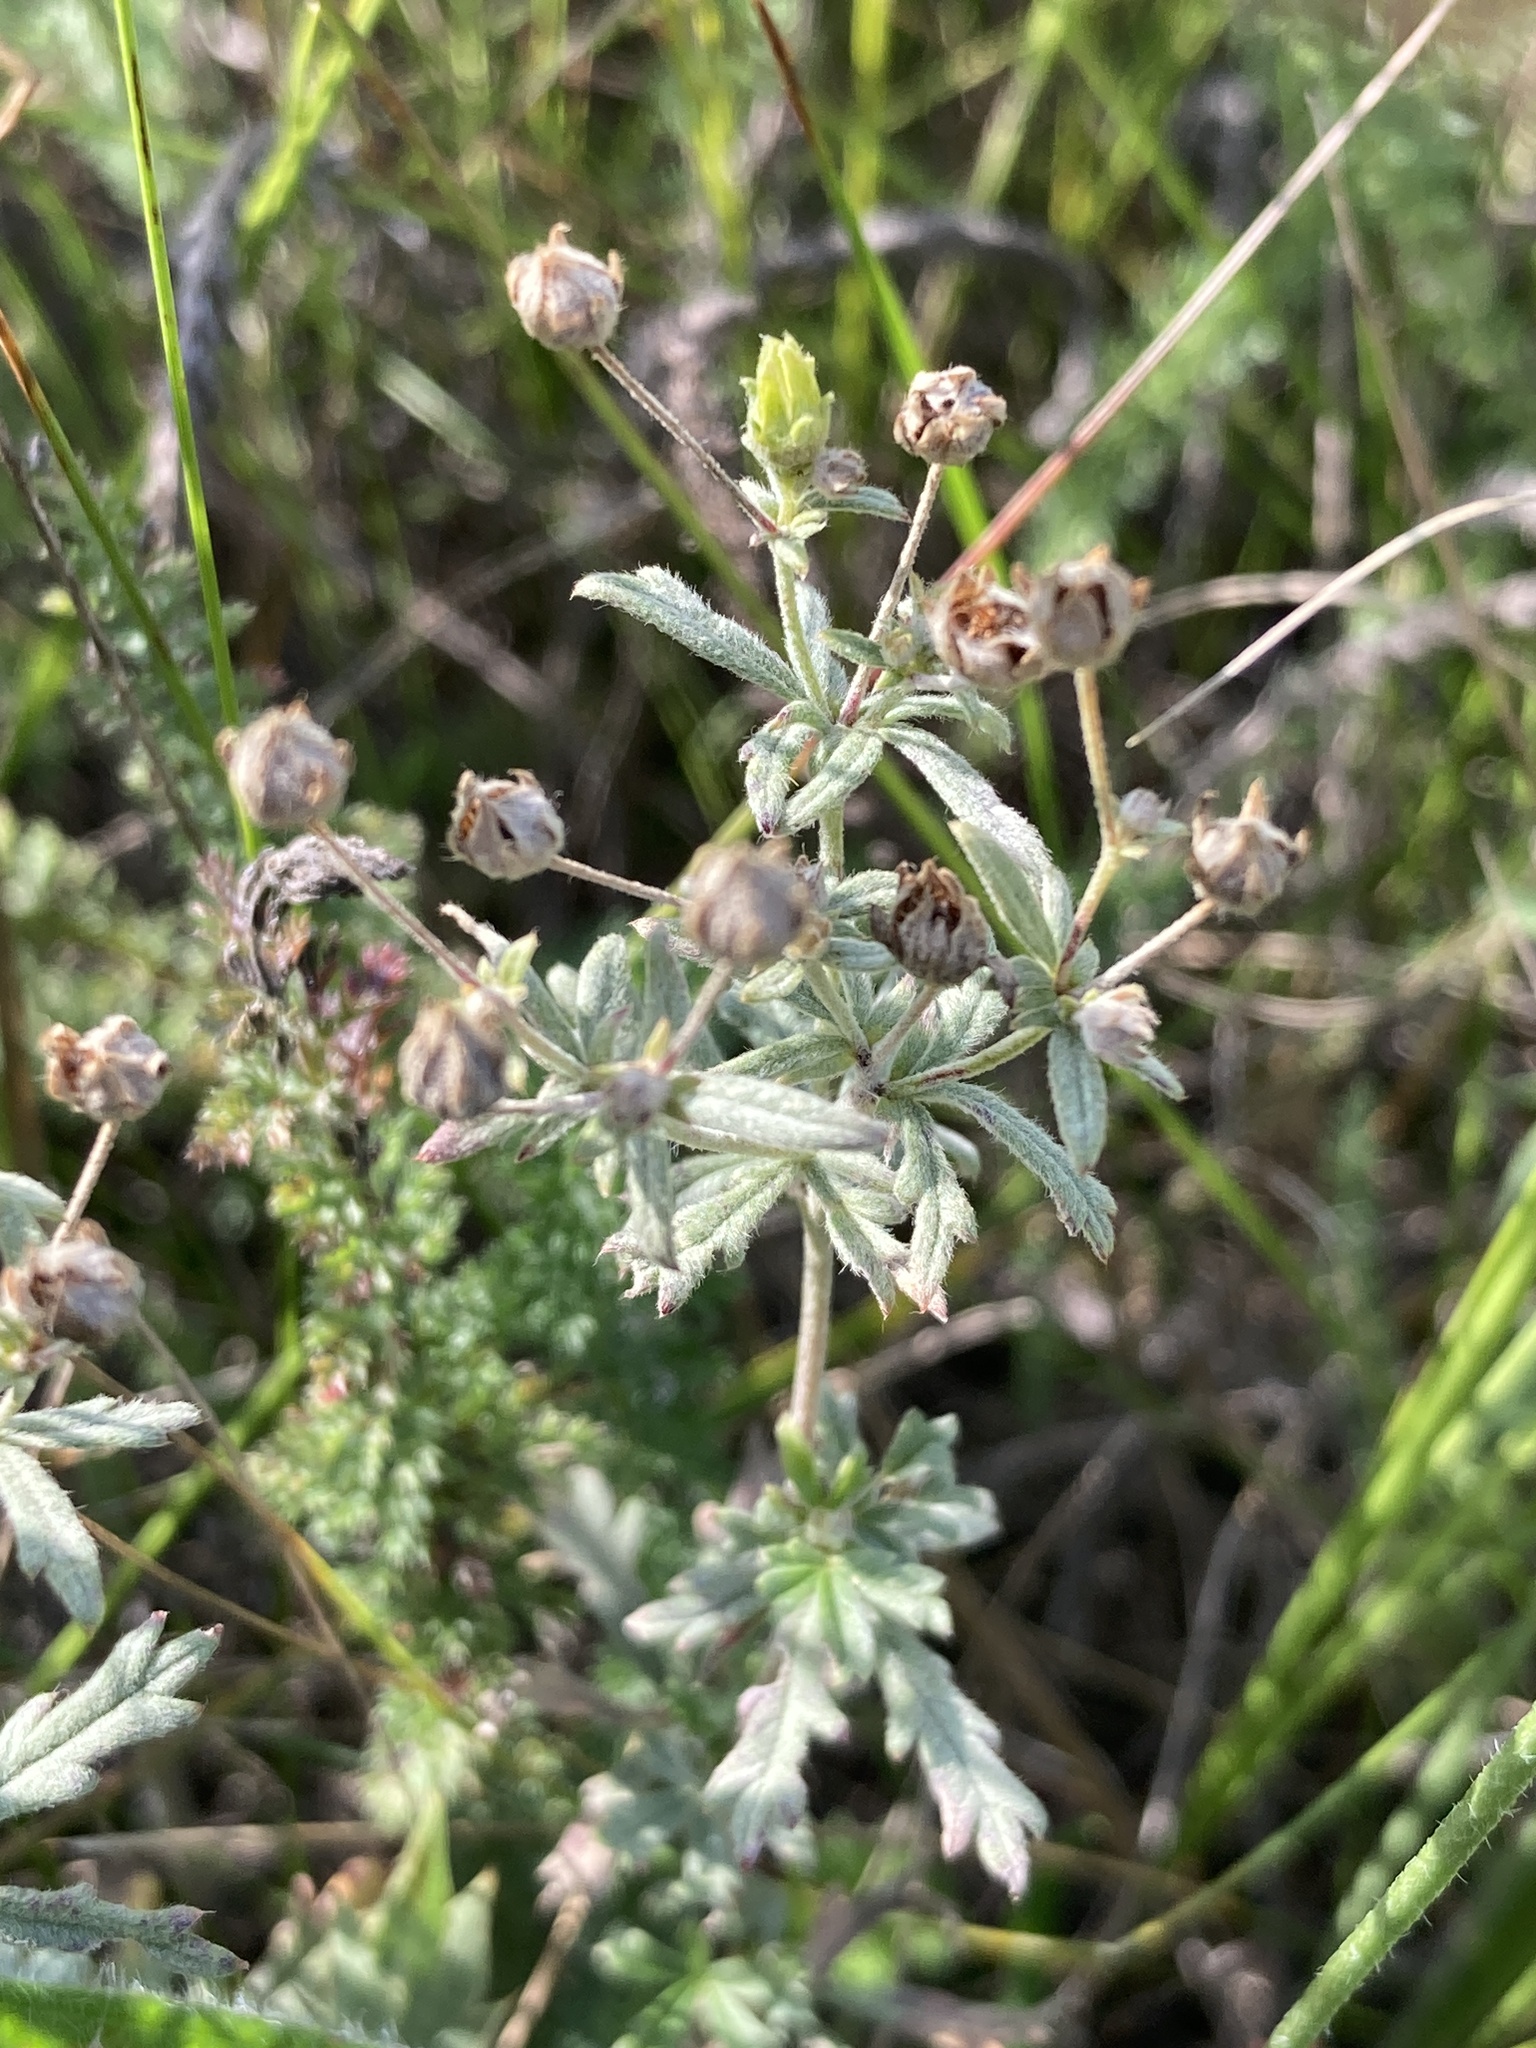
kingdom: Plantae
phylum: Tracheophyta
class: Magnoliopsida
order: Rosales
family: Rosaceae
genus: Potentilla
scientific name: Potentilla argentea
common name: Hoary cinquefoil
